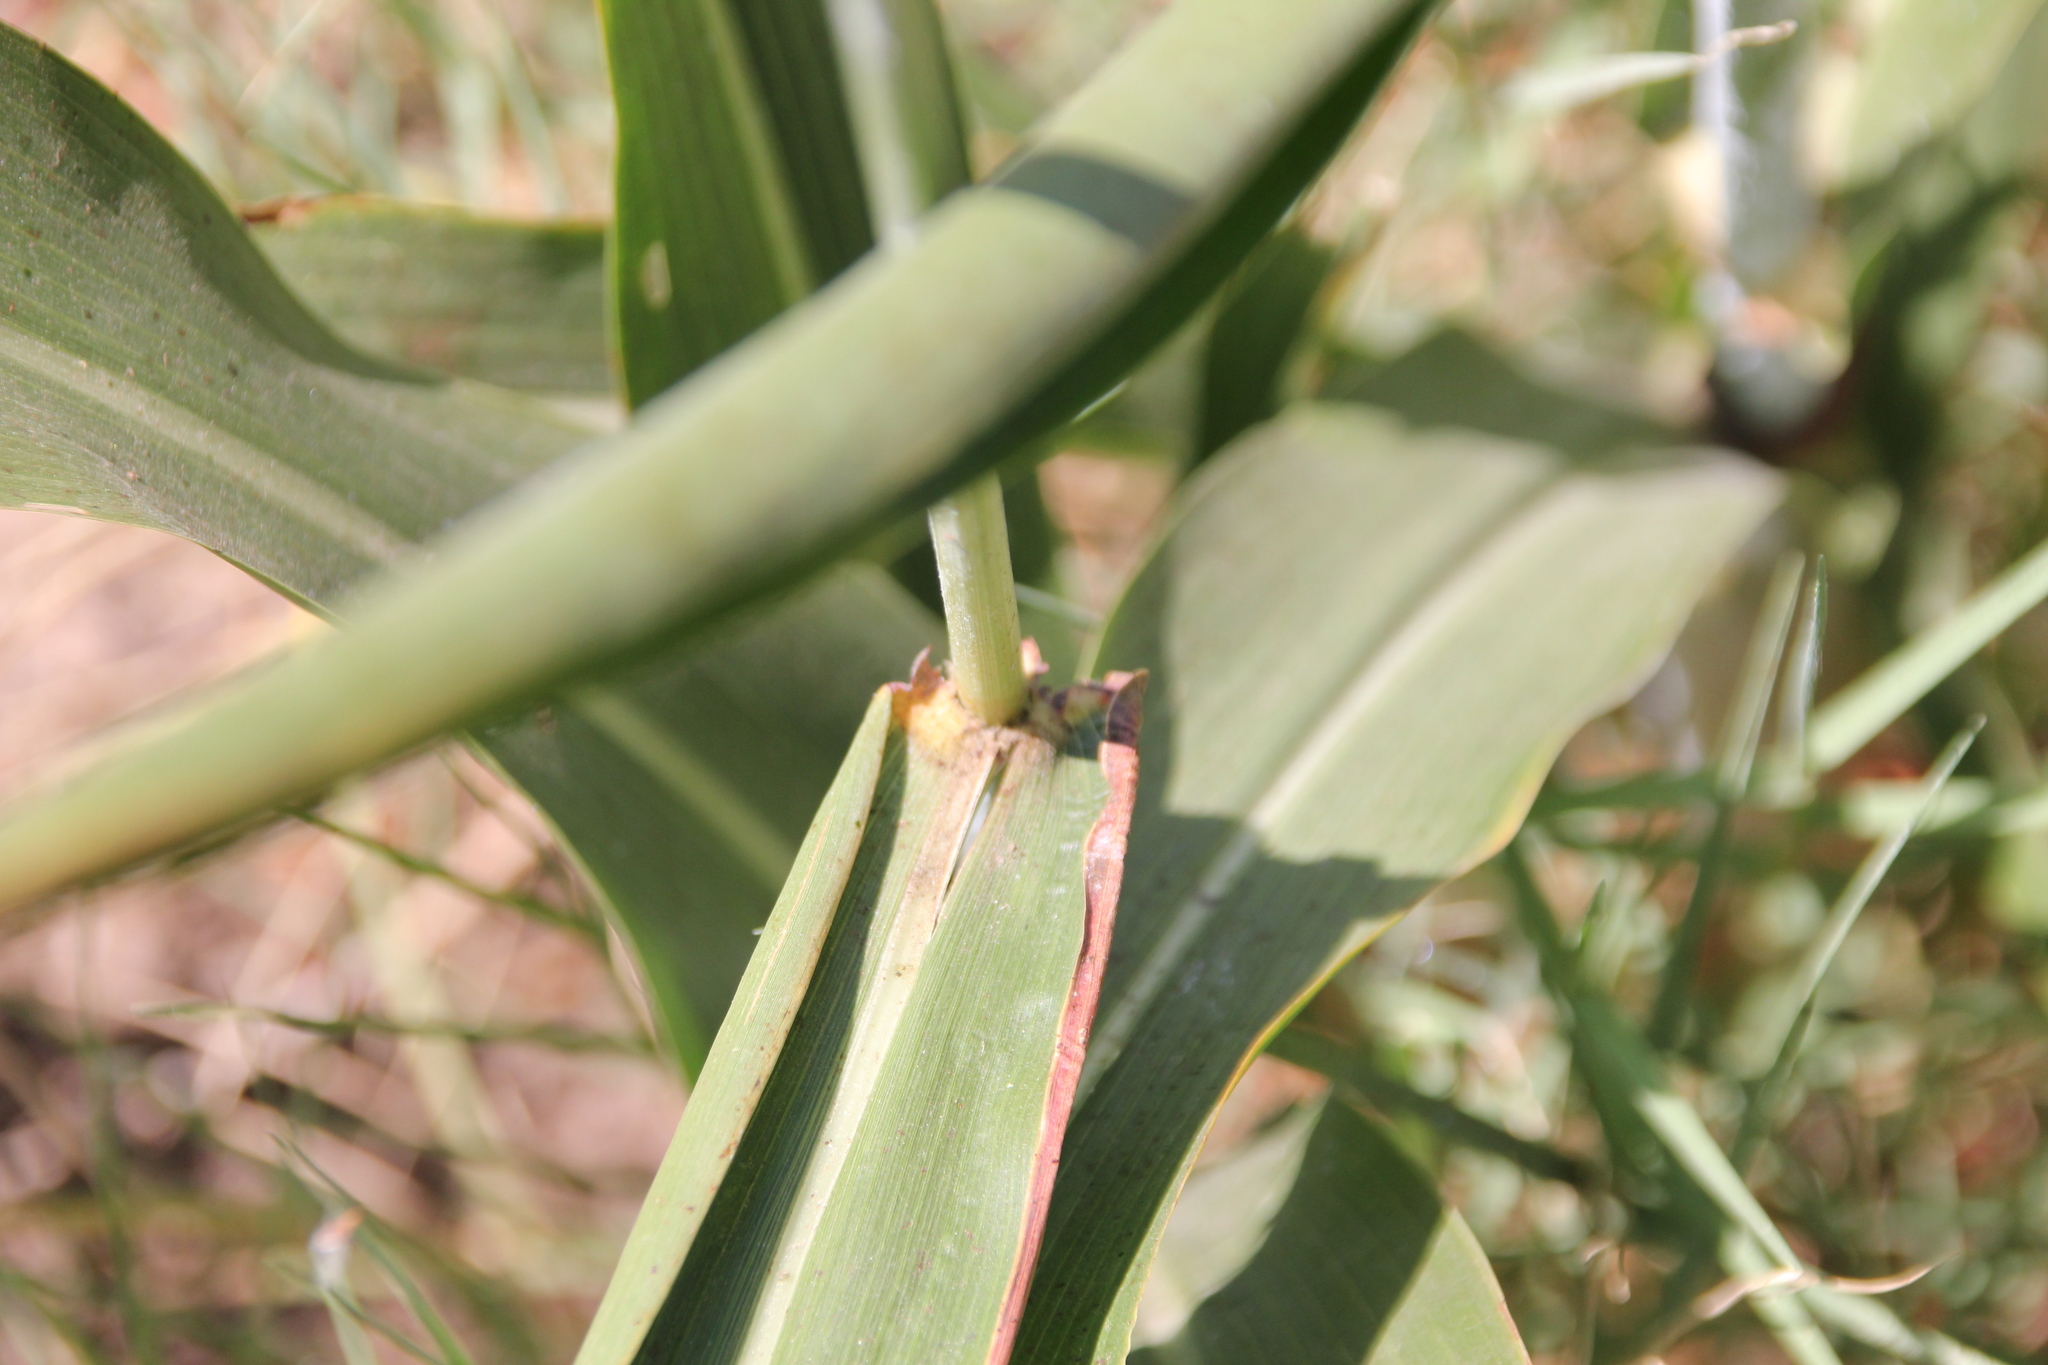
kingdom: Plantae
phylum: Tracheophyta
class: Liliopsida
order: Poales
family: Poaceae
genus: Sorghum
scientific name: Sorghum bicolor
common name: Sorghum
